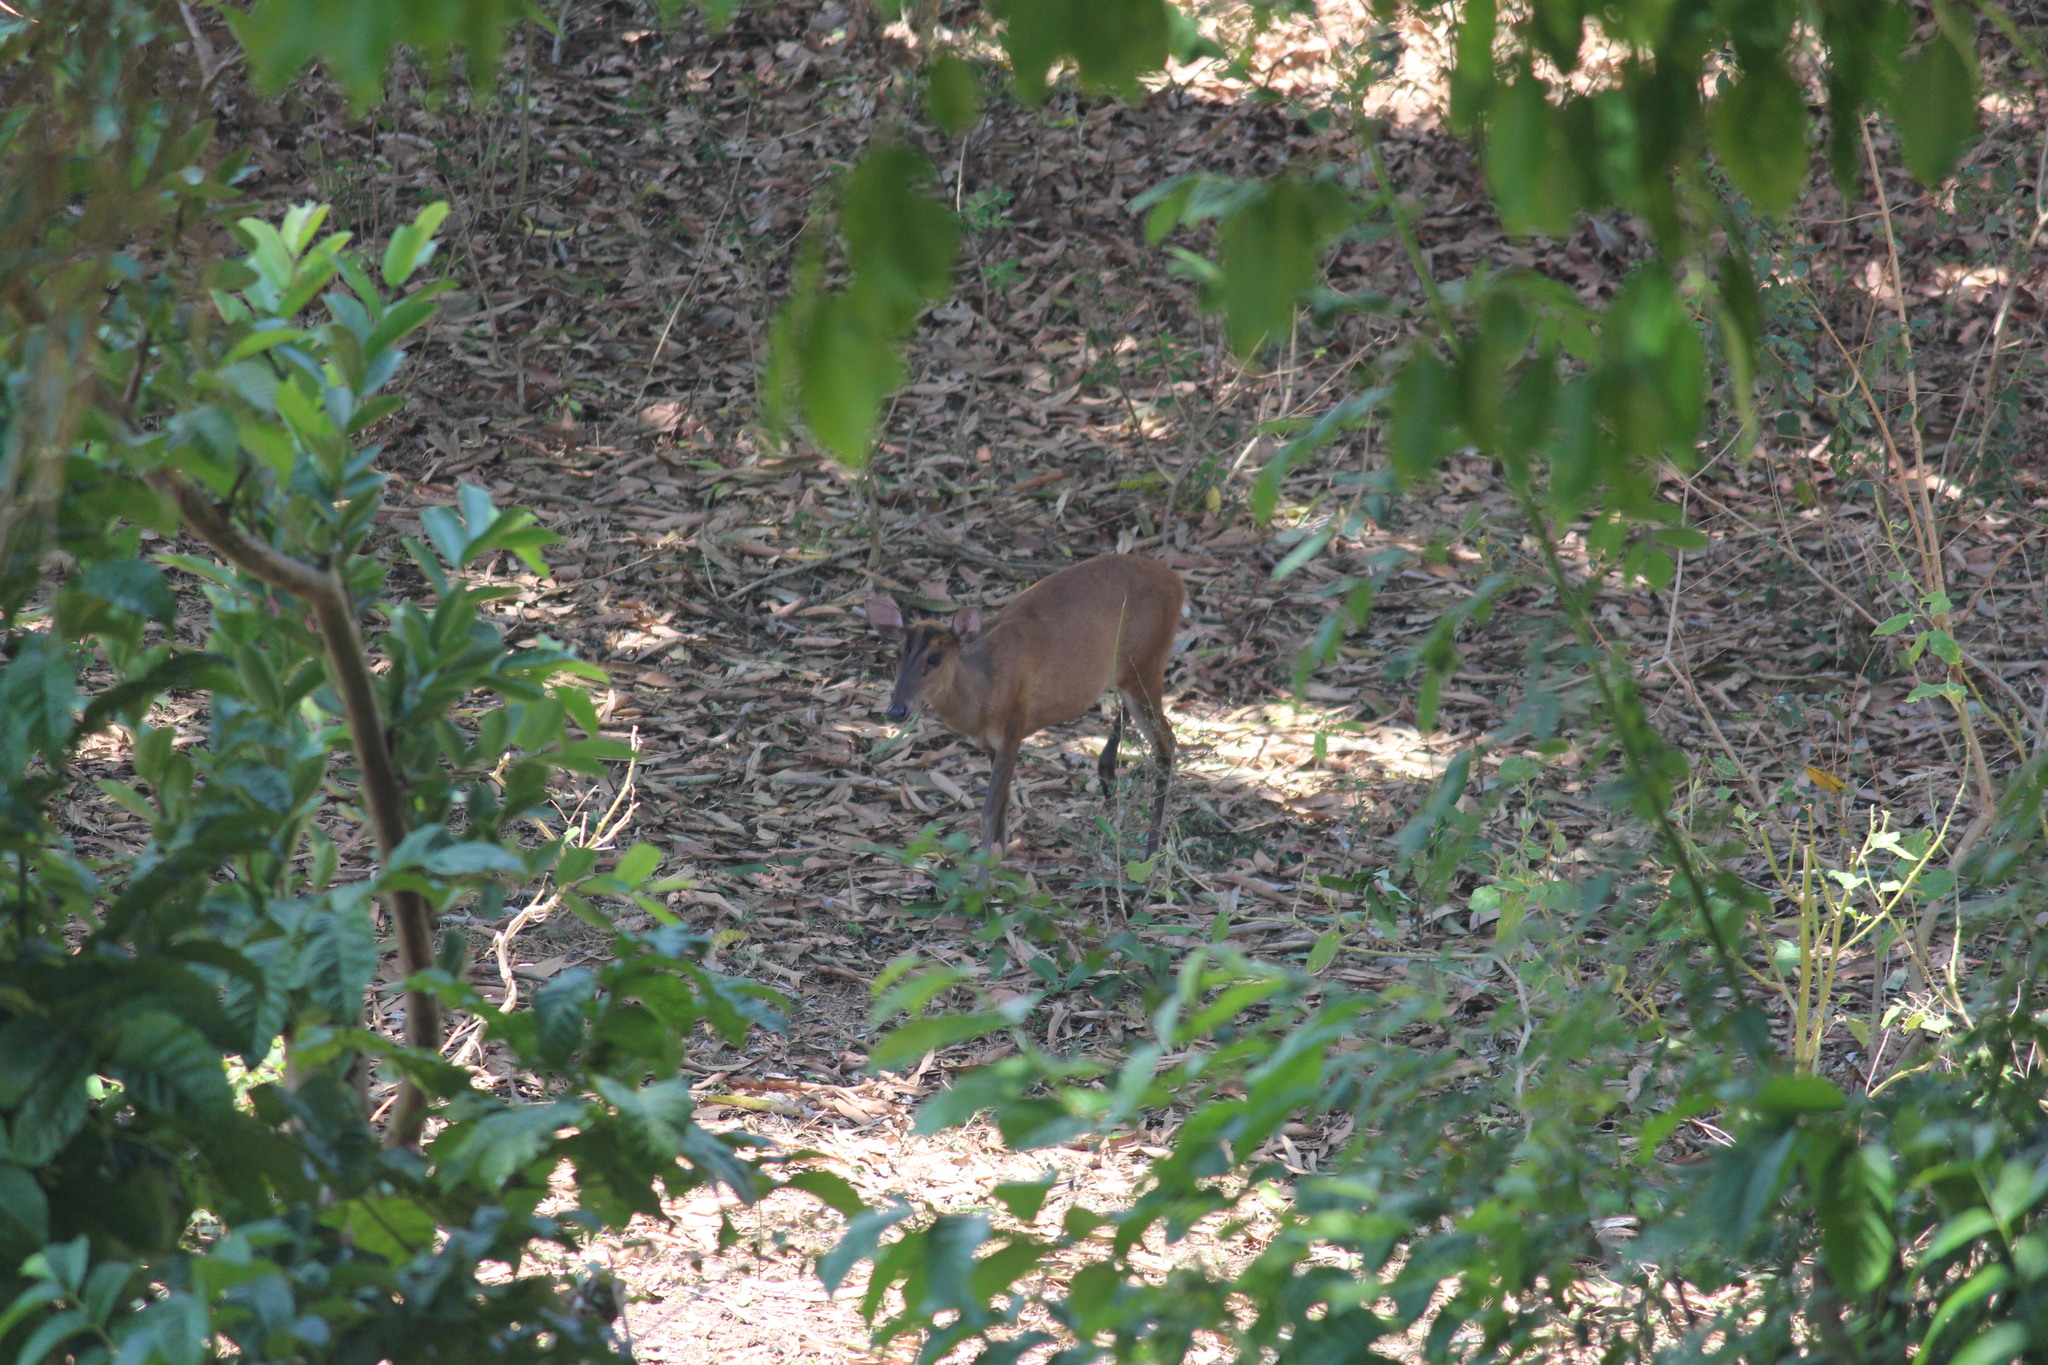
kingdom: Animalia
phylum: Chordata
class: Mammalia
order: Artiodactyla
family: Cervidae
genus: Muntiacus
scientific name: Muntiacus muntjak
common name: Indian muntjac
